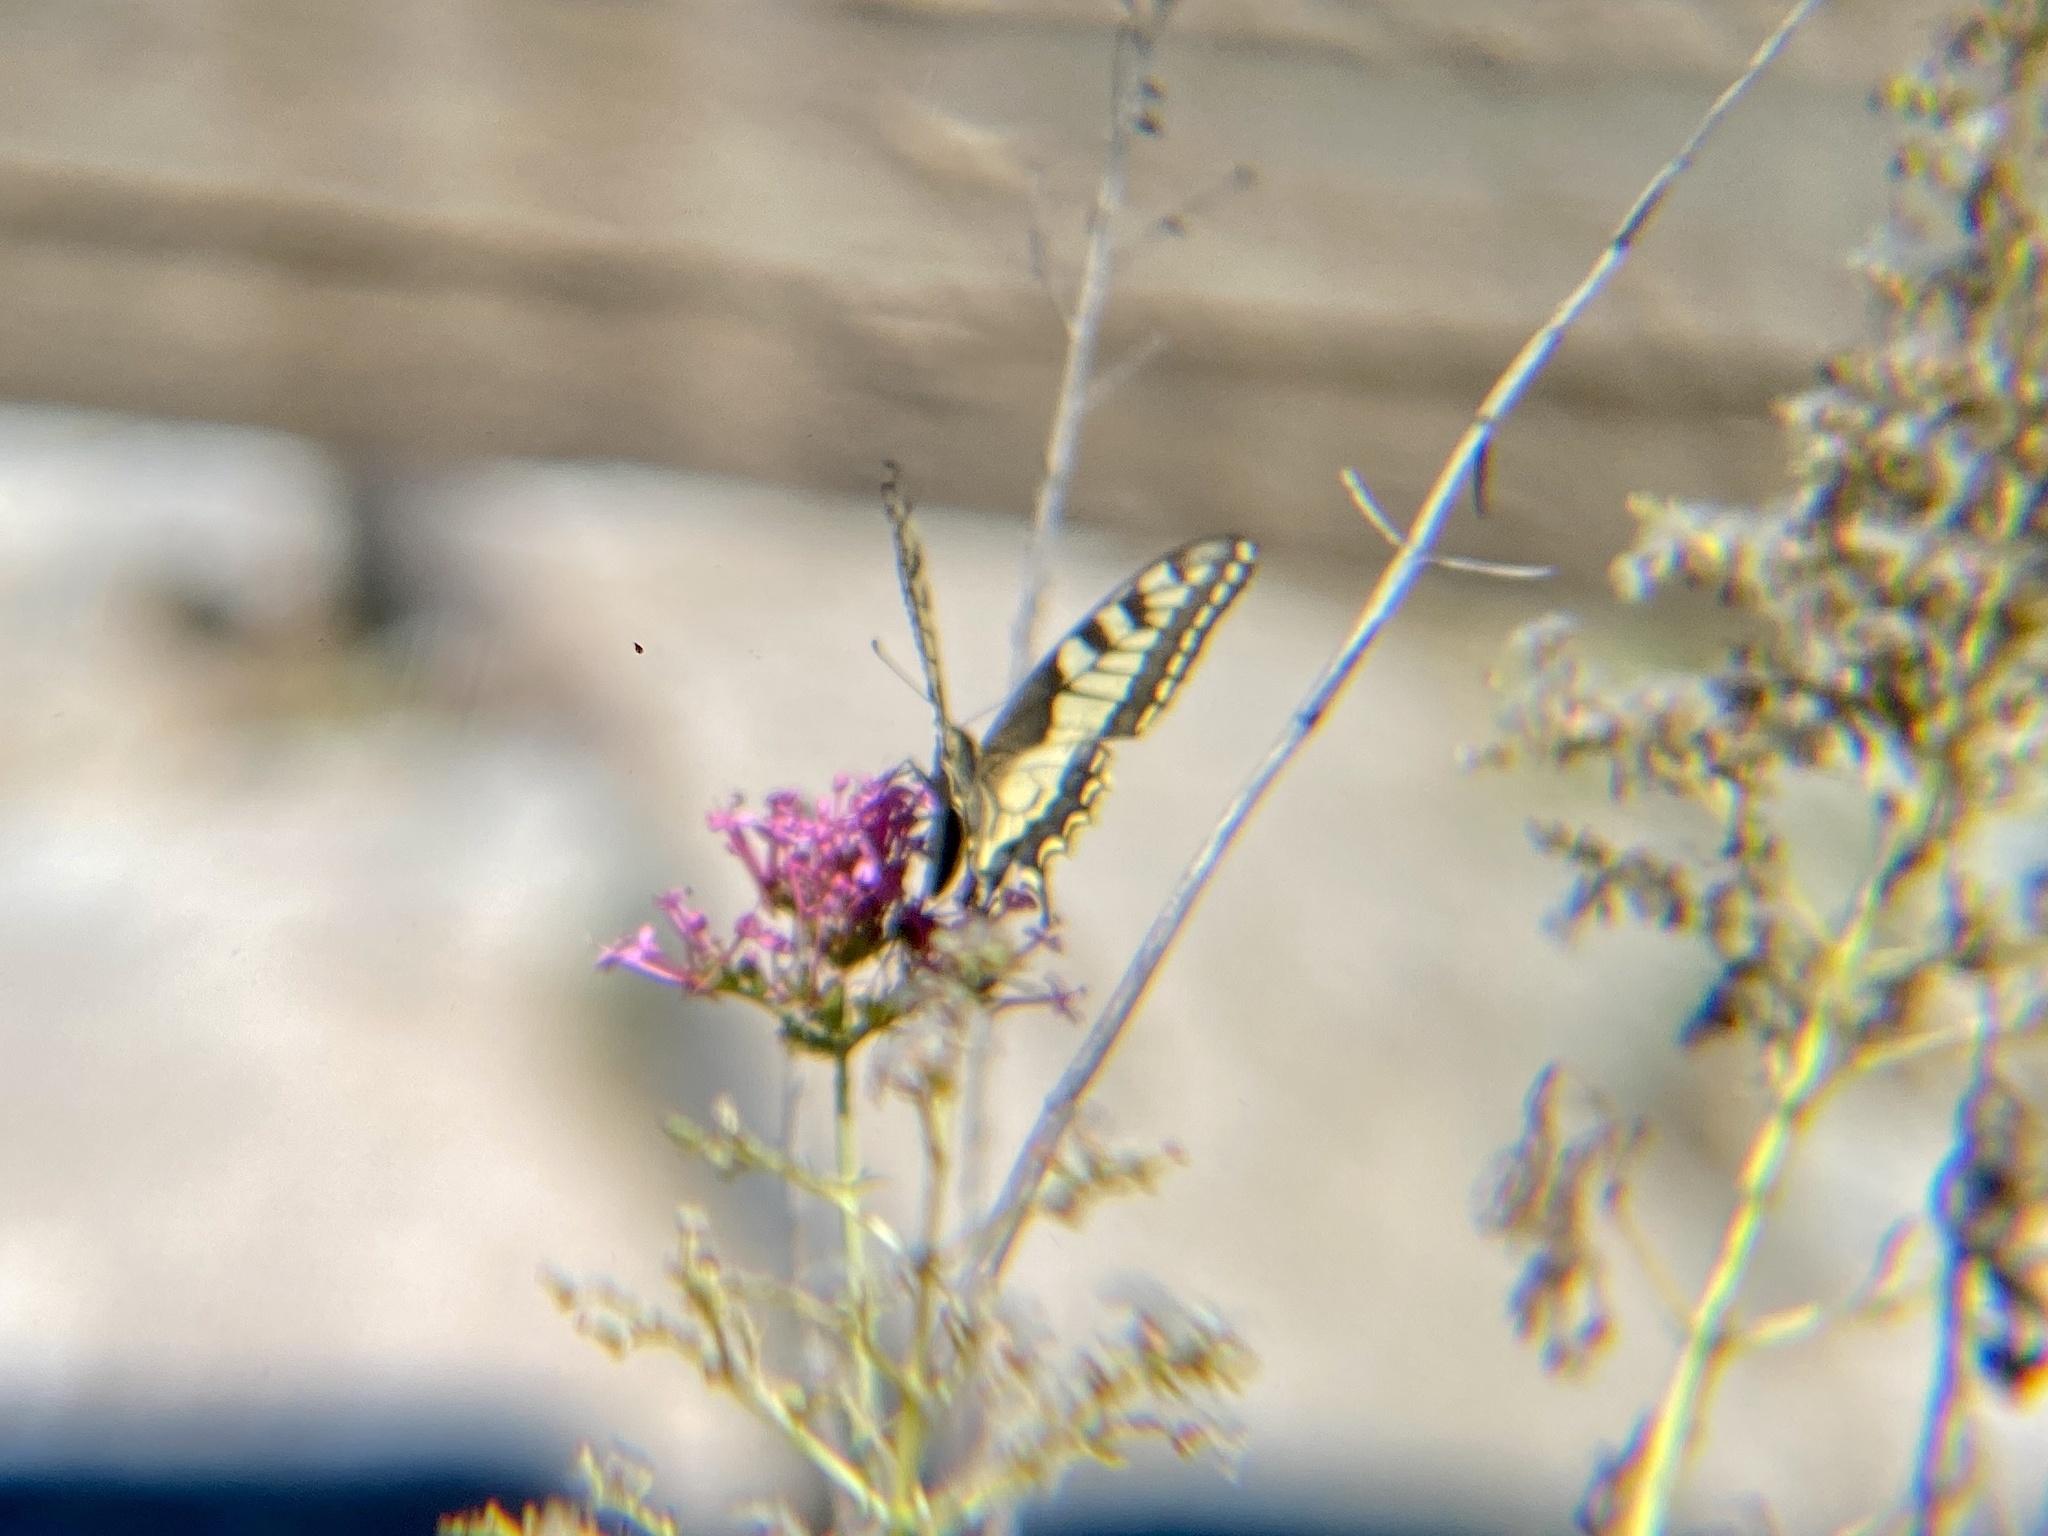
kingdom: Animalia
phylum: Arthropoda
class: Insecta
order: Lepidoptera
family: Papilionidae
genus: Papilio
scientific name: Papilio machaon
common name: Swallowtail
